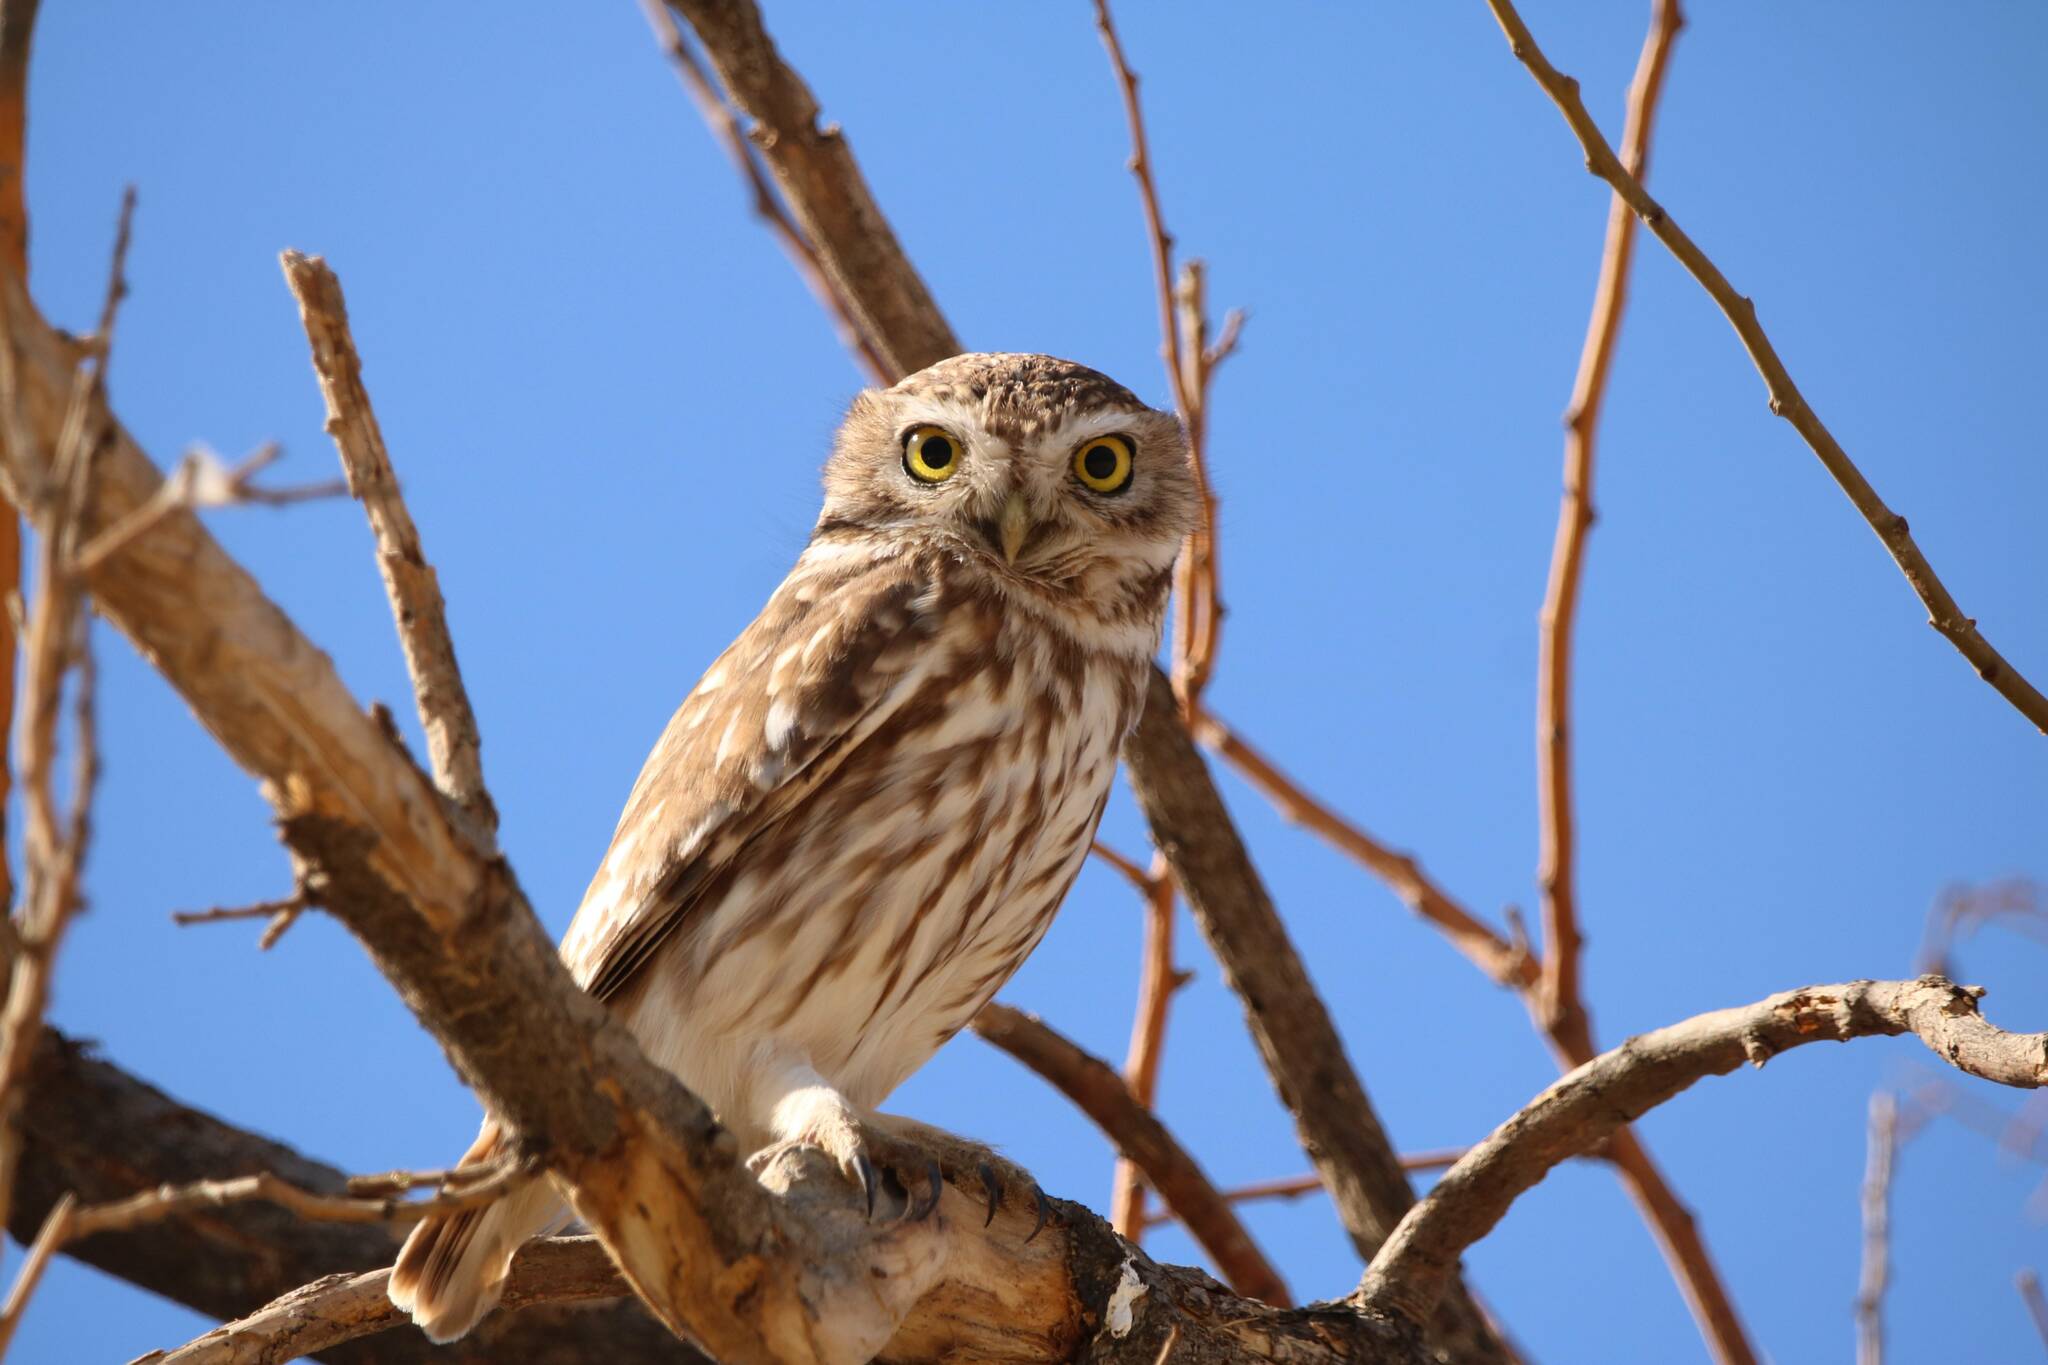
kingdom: Animalia
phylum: Chordata
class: Aves
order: Strigiformes
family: Strigidae
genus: Athene
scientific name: Athene noctua
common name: Little owl
